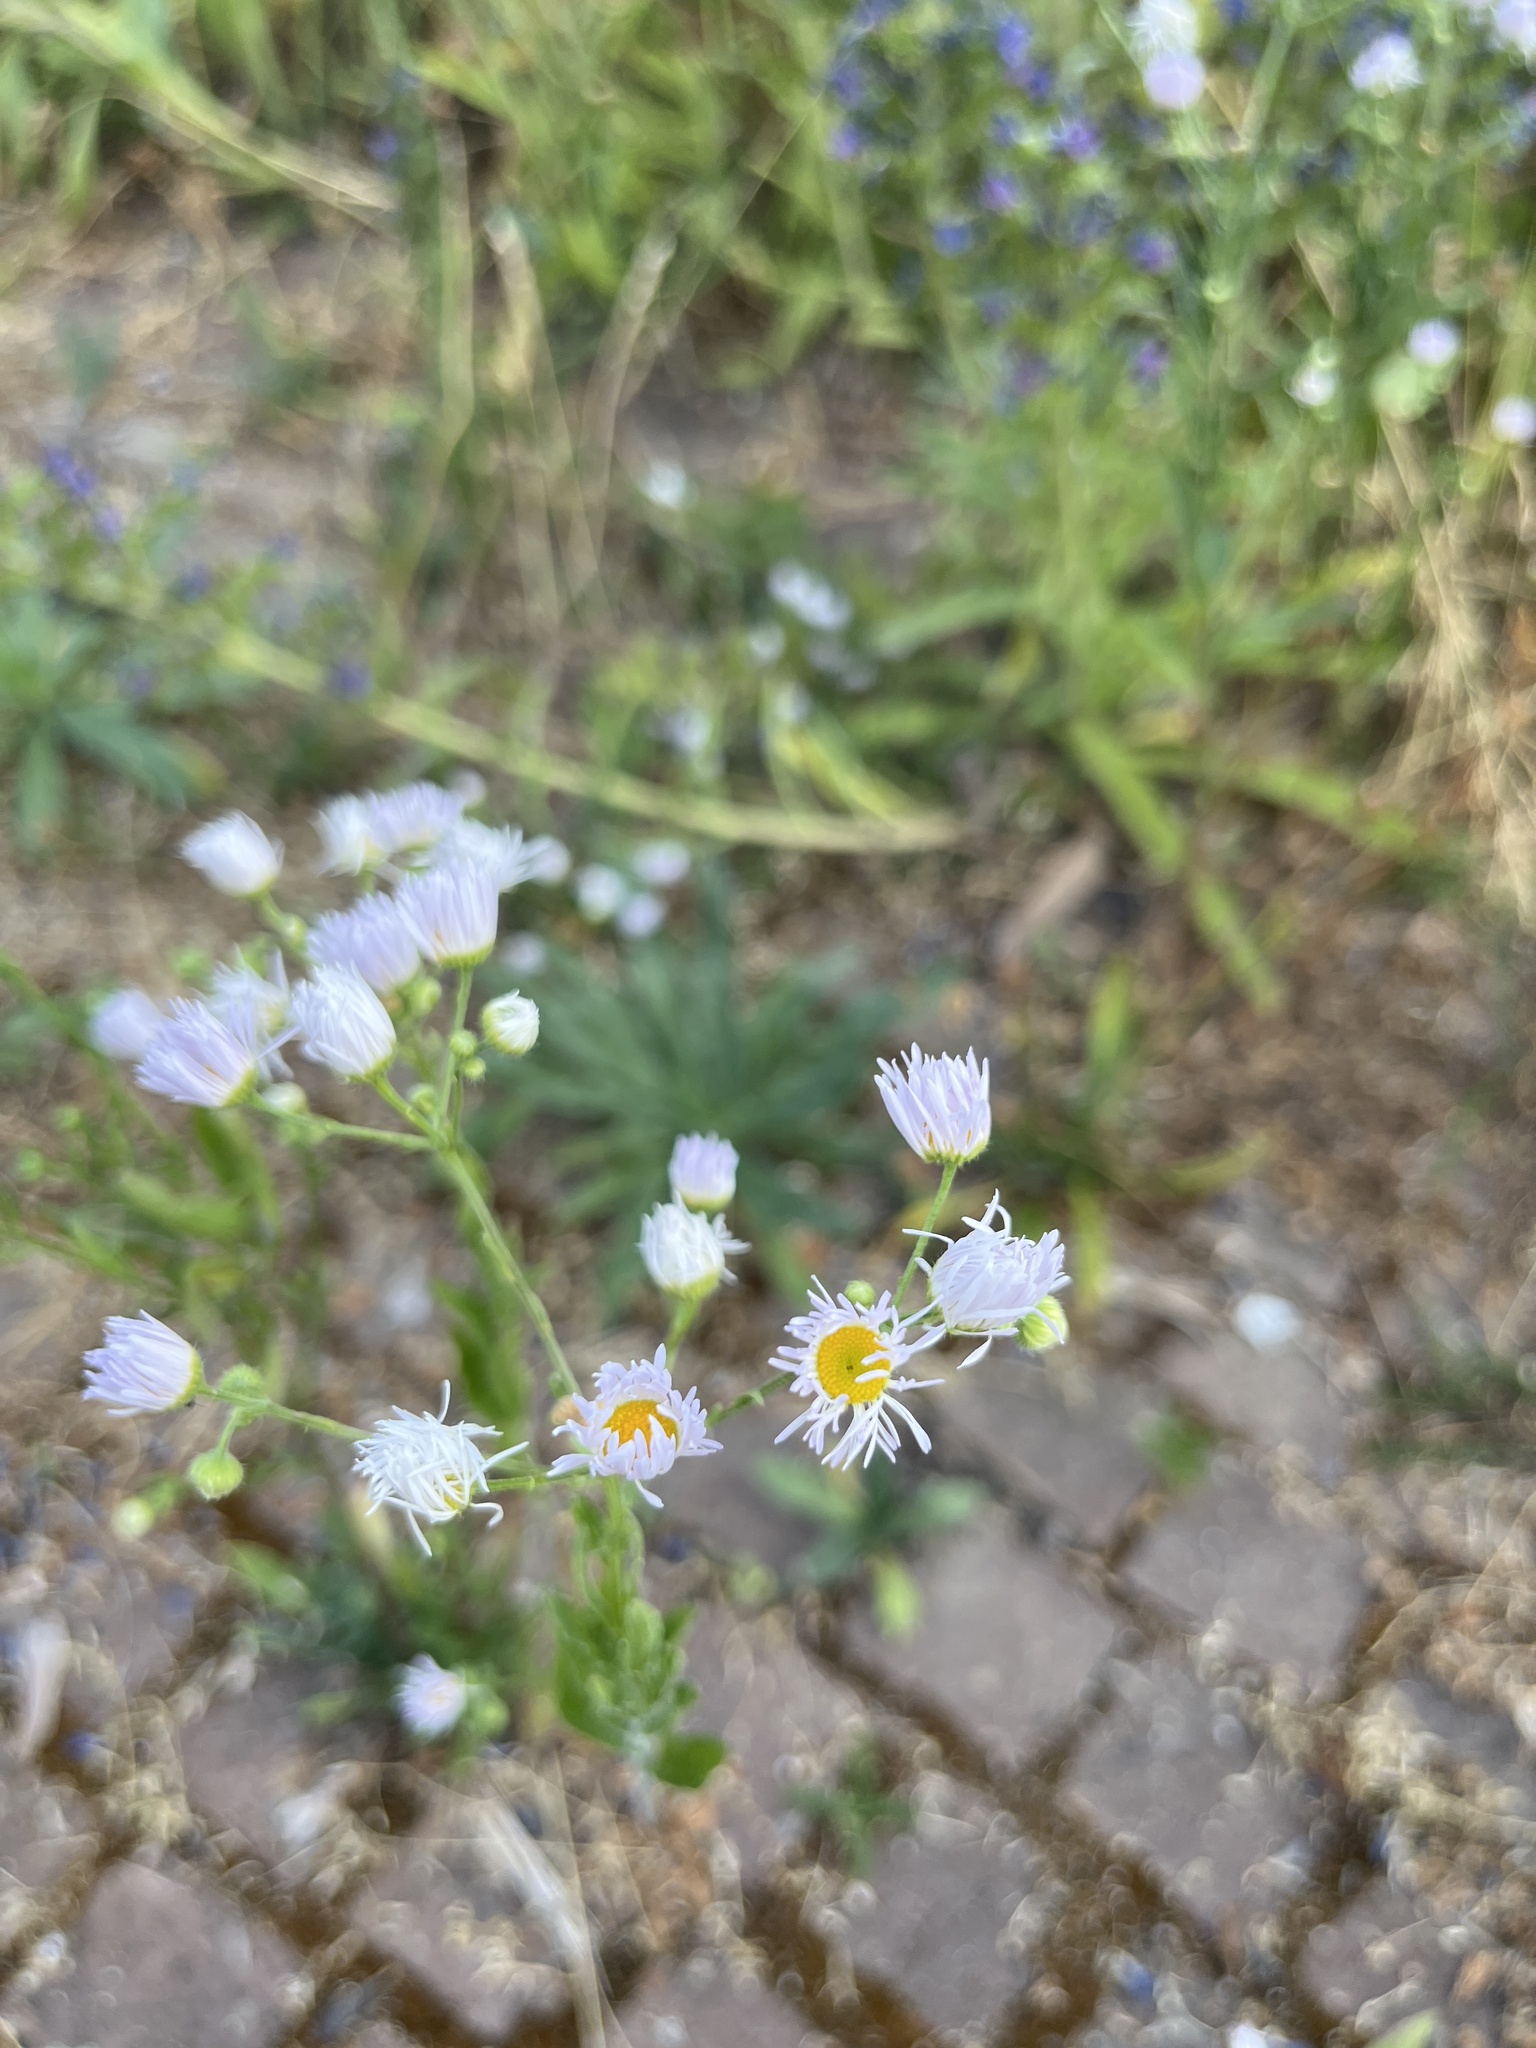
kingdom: Plantae
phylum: Tracheophyta
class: Magnoliopsida
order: Asterales
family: Asteraceae
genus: Erigeron
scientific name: Erigeron annuus
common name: Tall fleabane
